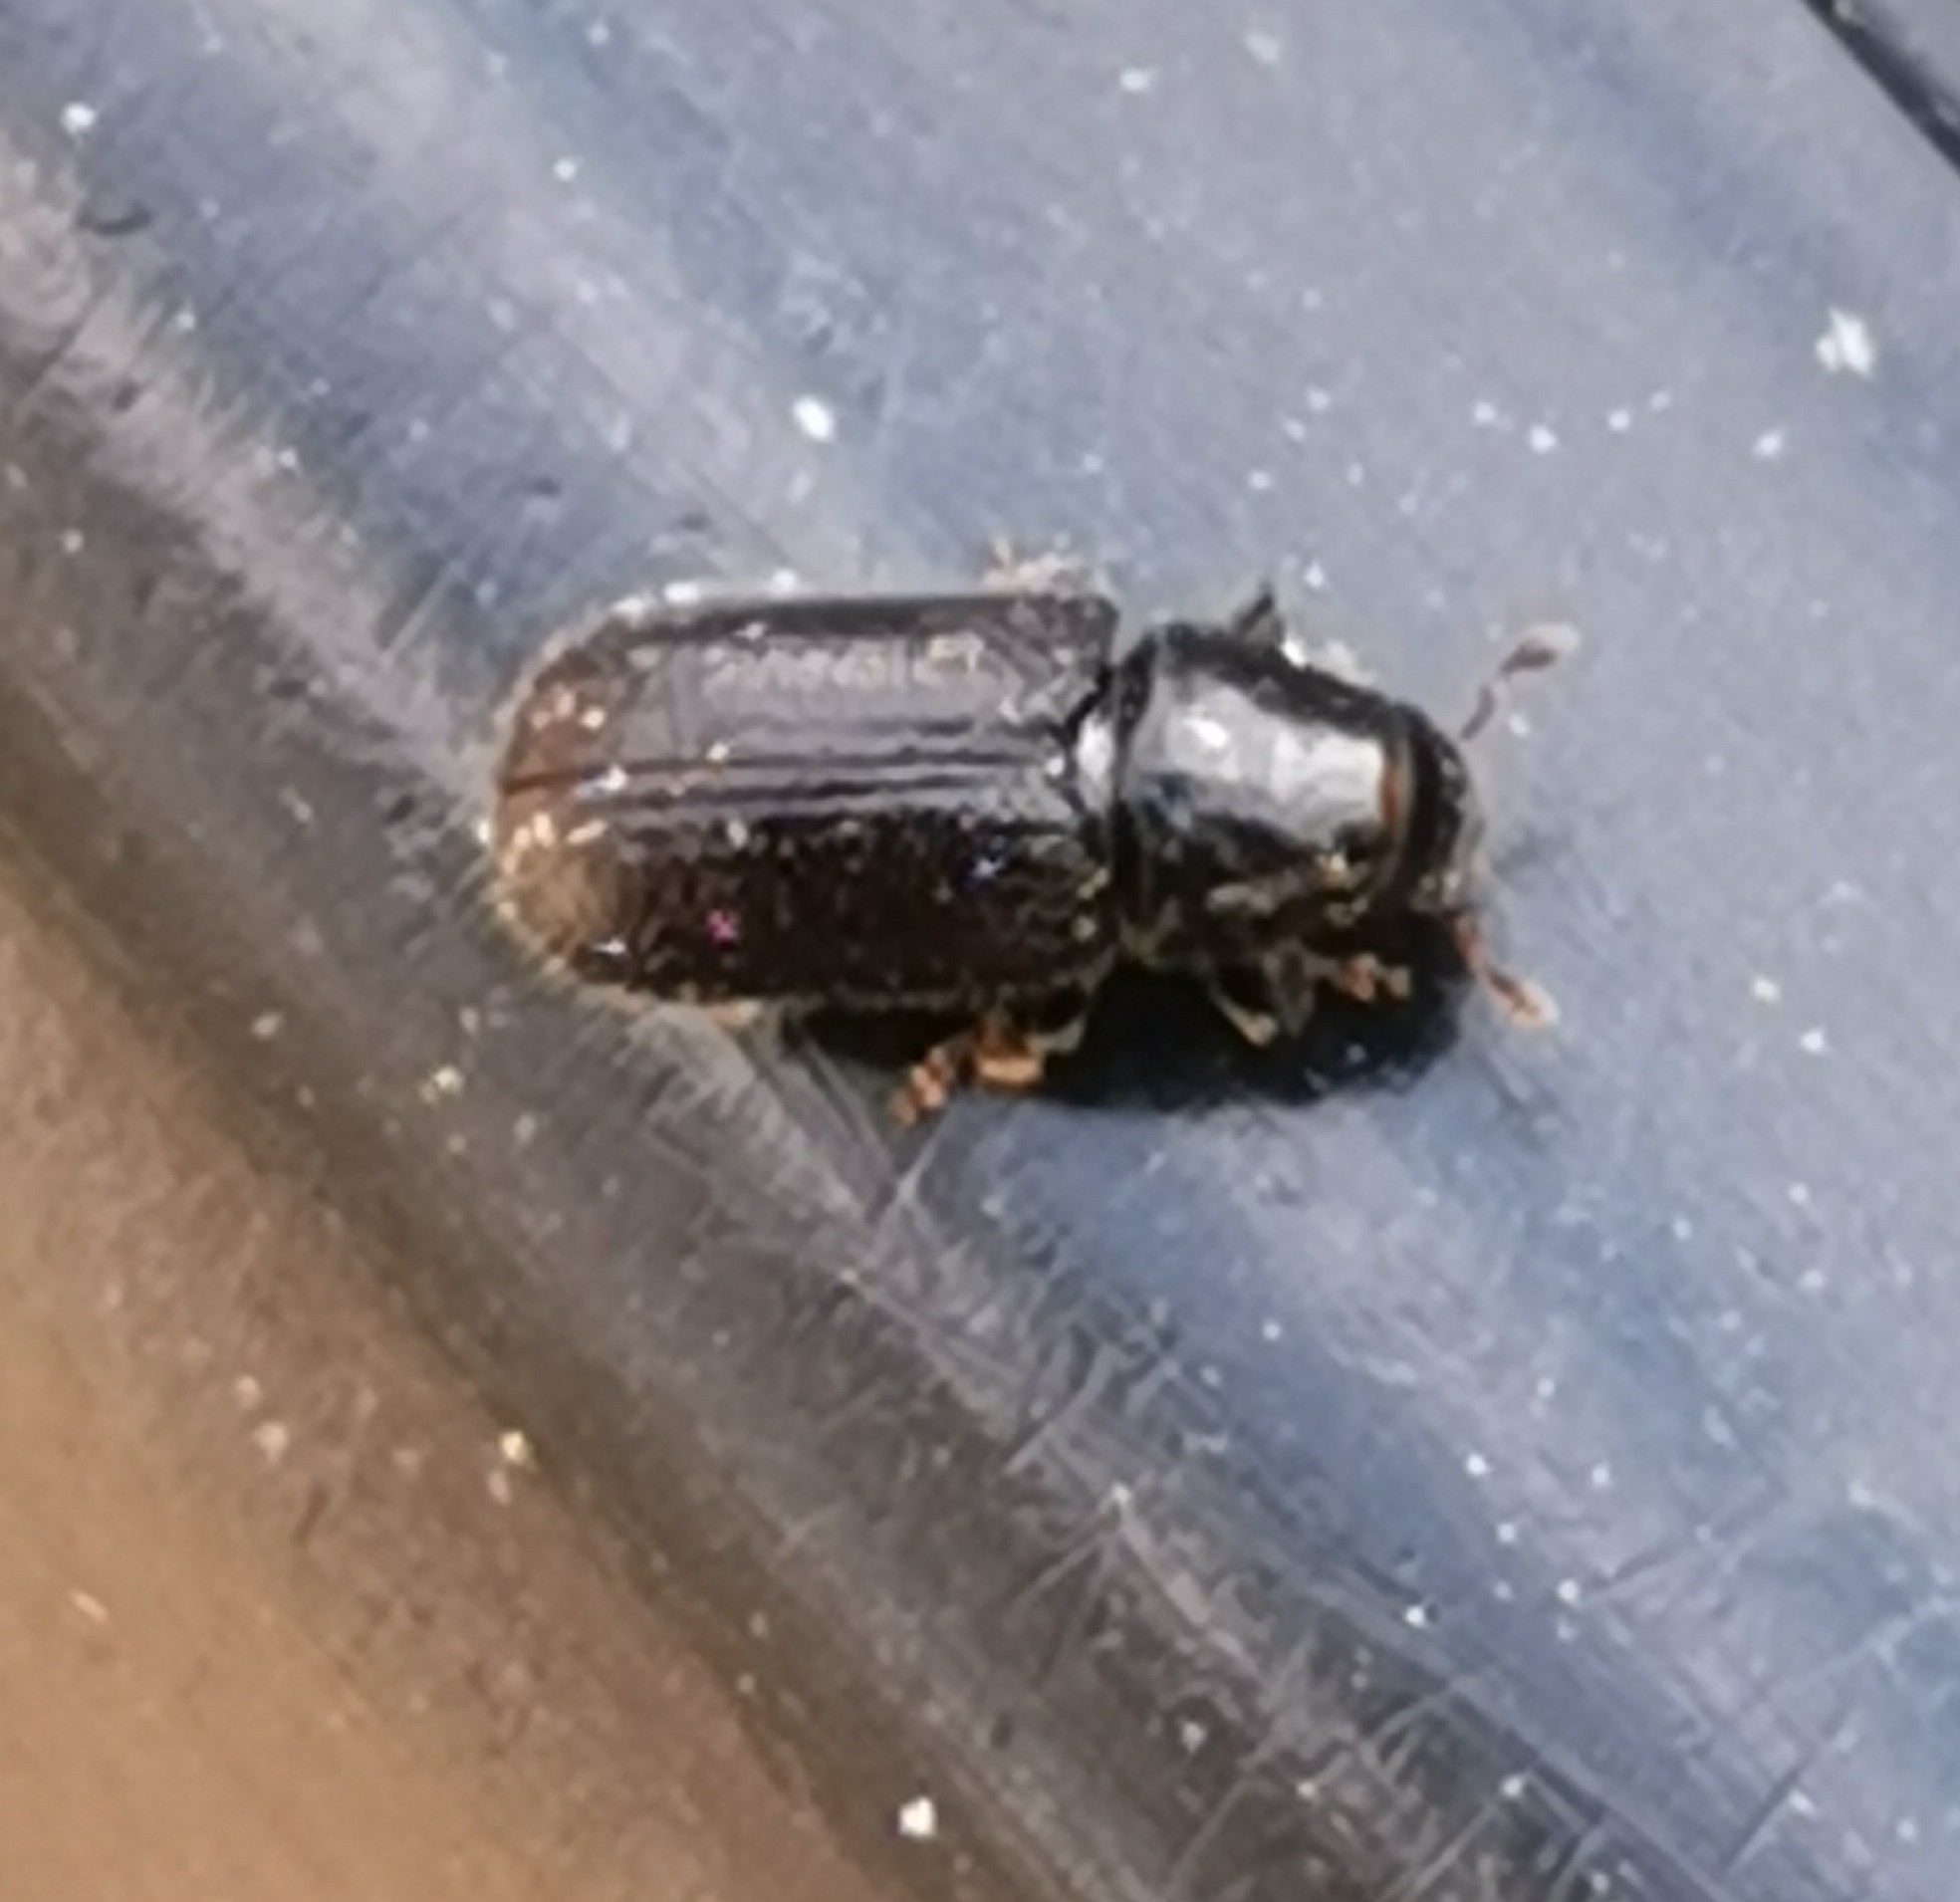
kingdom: Animalia
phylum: Arthropoda
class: Insecta
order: Coleoptera
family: Curculionidae
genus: Tomicus
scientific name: Tomicus piniperda
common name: Large pine shoot beetle
